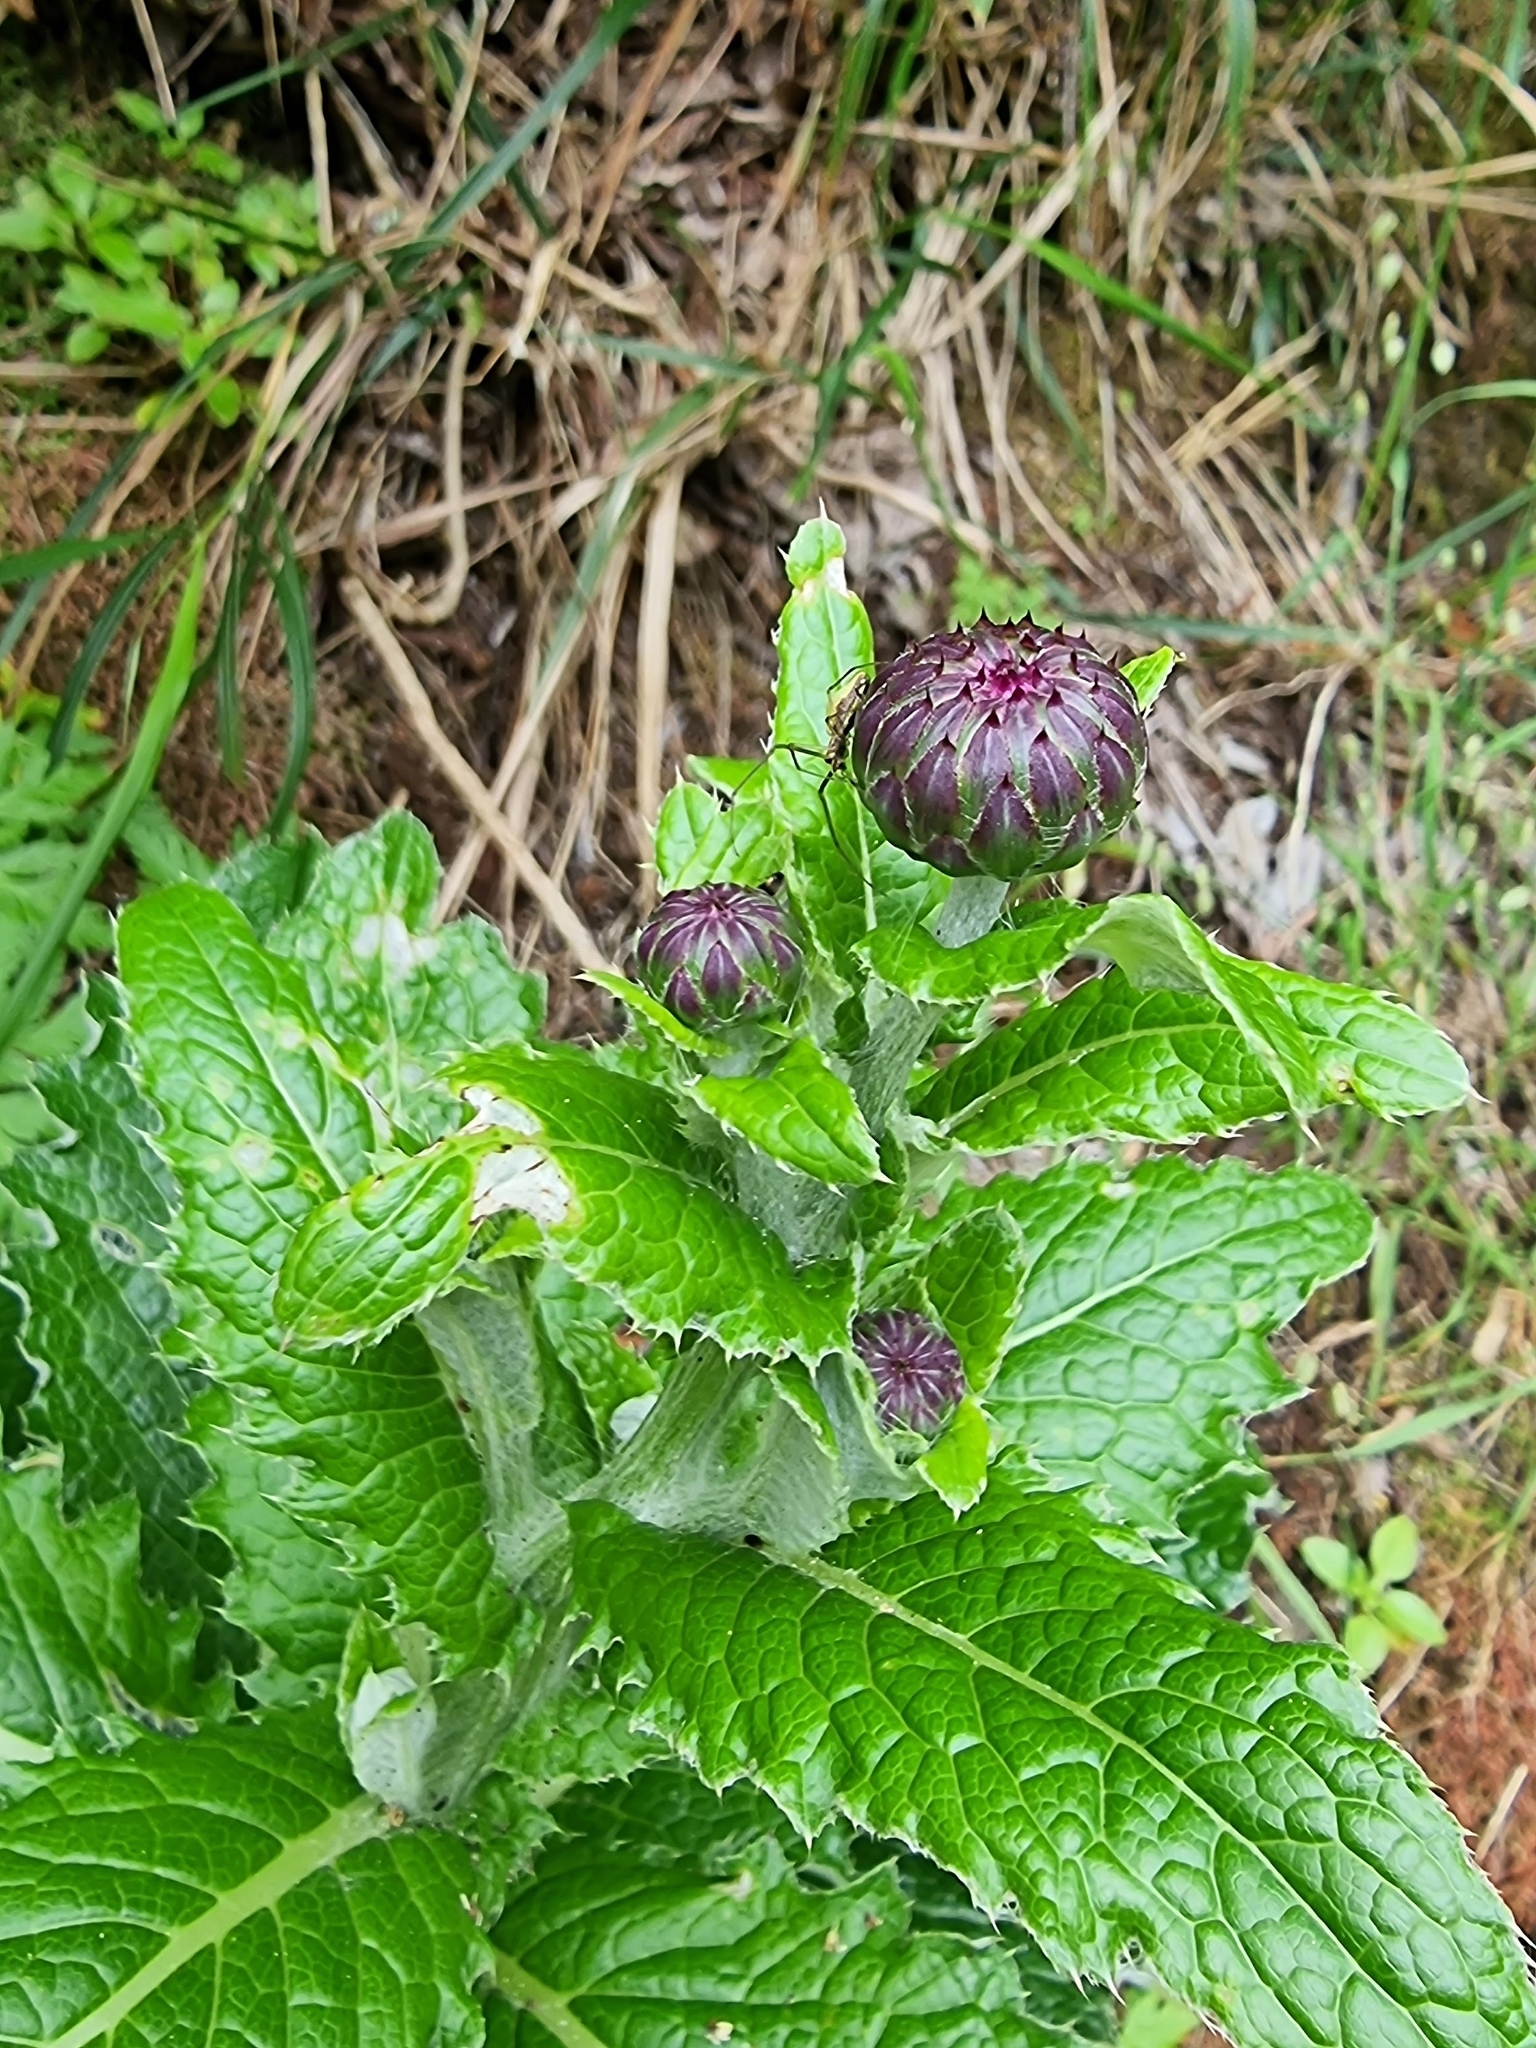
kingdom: Plantae
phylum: Tracheophyta
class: Magnoliopsida
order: Asterales
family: Asteraceae
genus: Cirsium
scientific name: Cirsium latifolium
